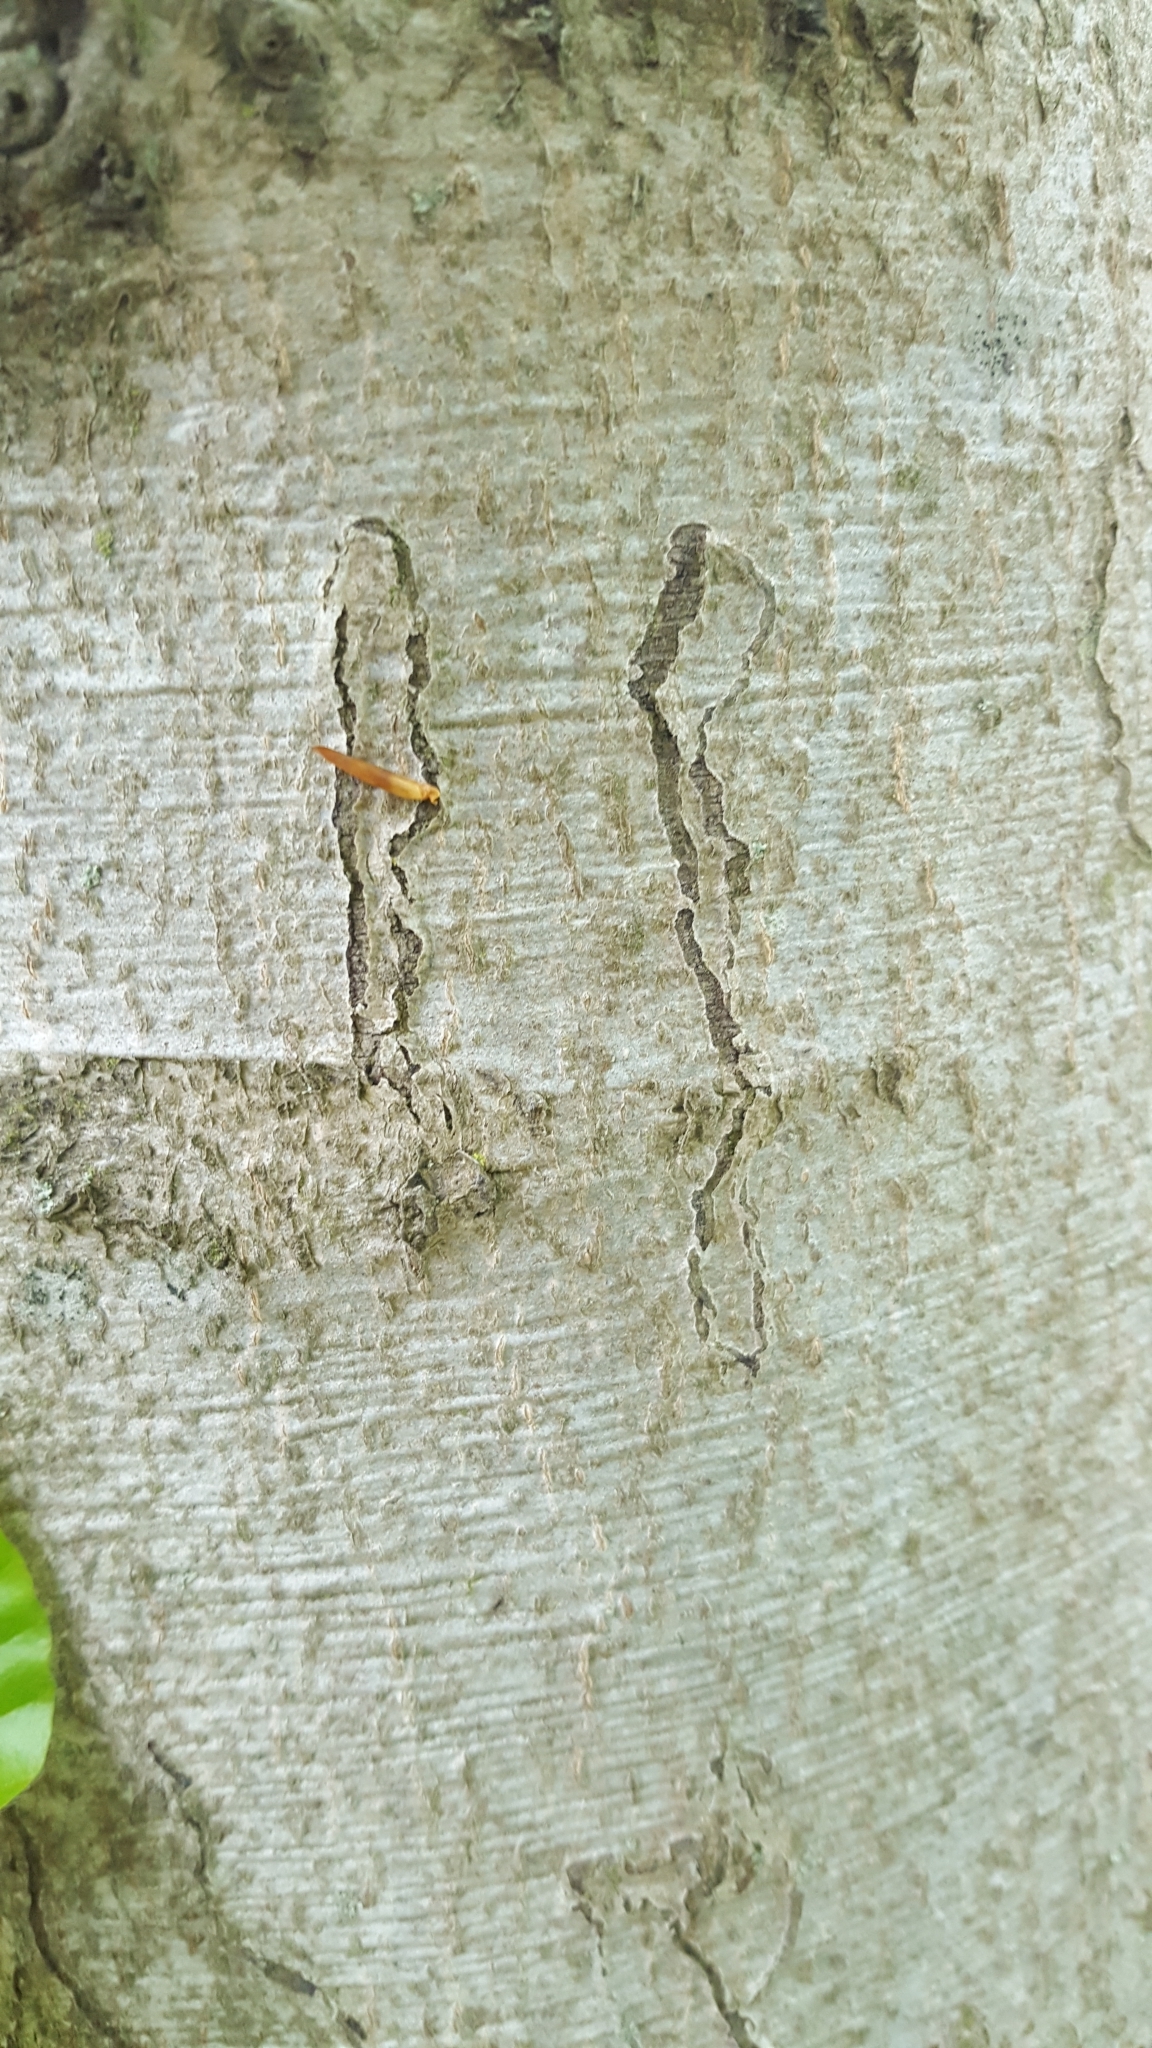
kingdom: Animalia
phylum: Arthropoda
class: Insecta
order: Lepidoptera
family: Nepticulidae
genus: Zimmermannia
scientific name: Zimmermannia liebwerdella
